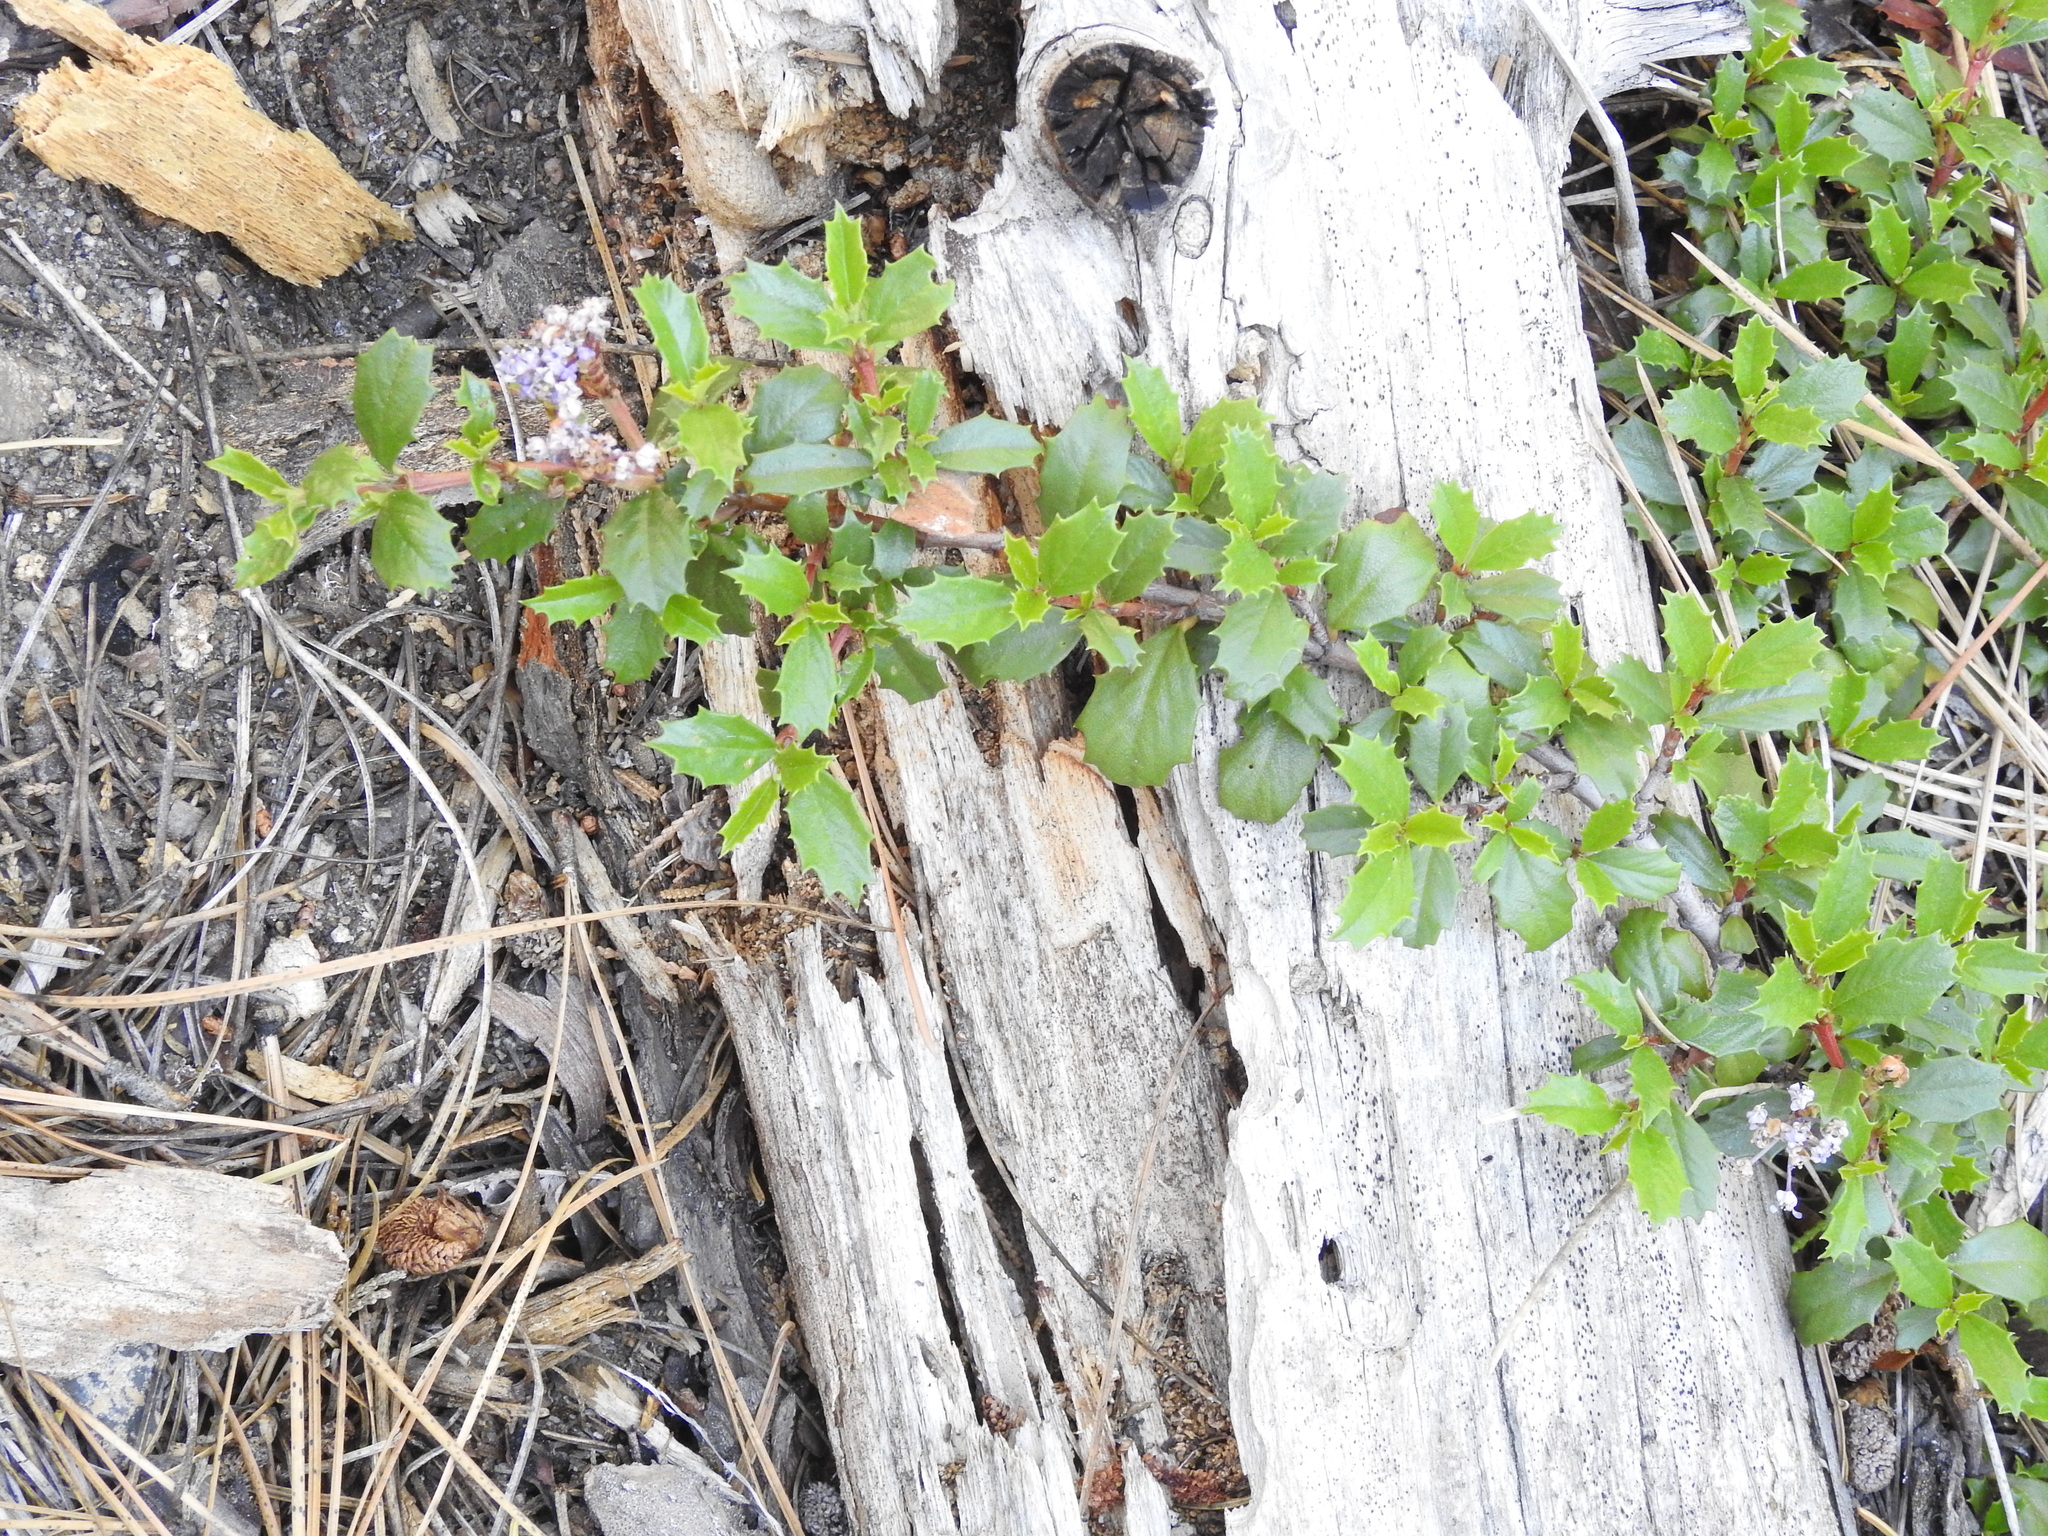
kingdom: Plantae
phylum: Tracheophyta
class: Magnoliopsida
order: Rosales
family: Rhamnaceae
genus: Ceanothus
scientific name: Ceanothus prostratus
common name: Mahala-mat
